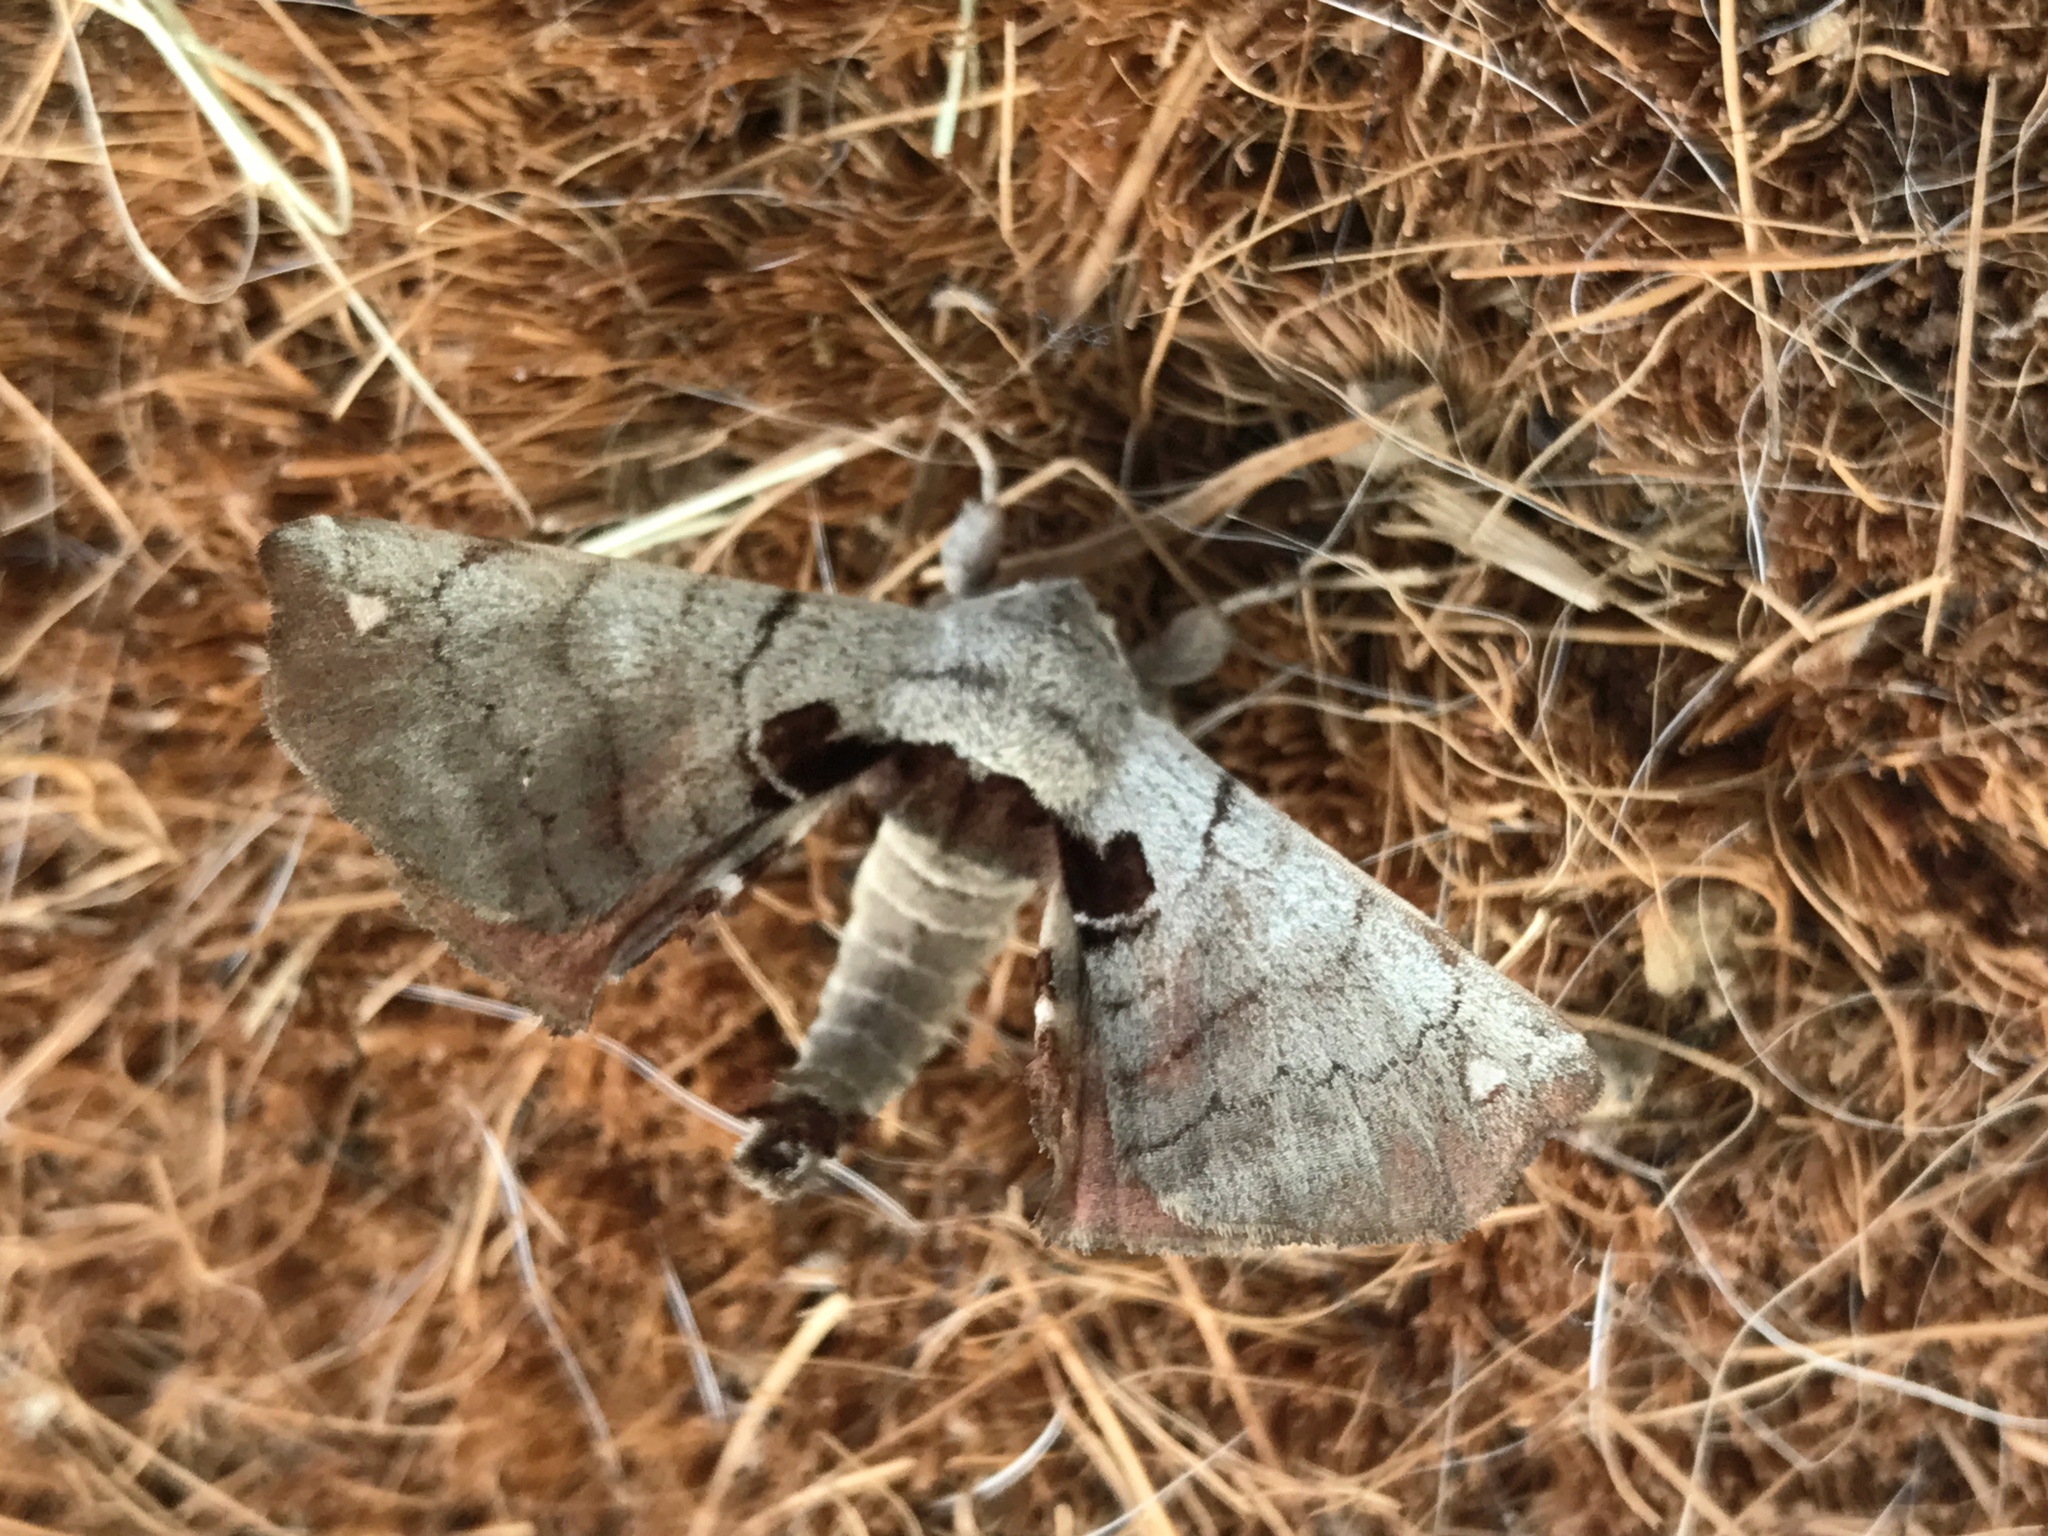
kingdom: Animalia
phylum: Arthropoda
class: Insecta
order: Lepidoptera
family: Apatelodidae
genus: Hygrochroa
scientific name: Hygrochroa Apatelodes torrefacta
